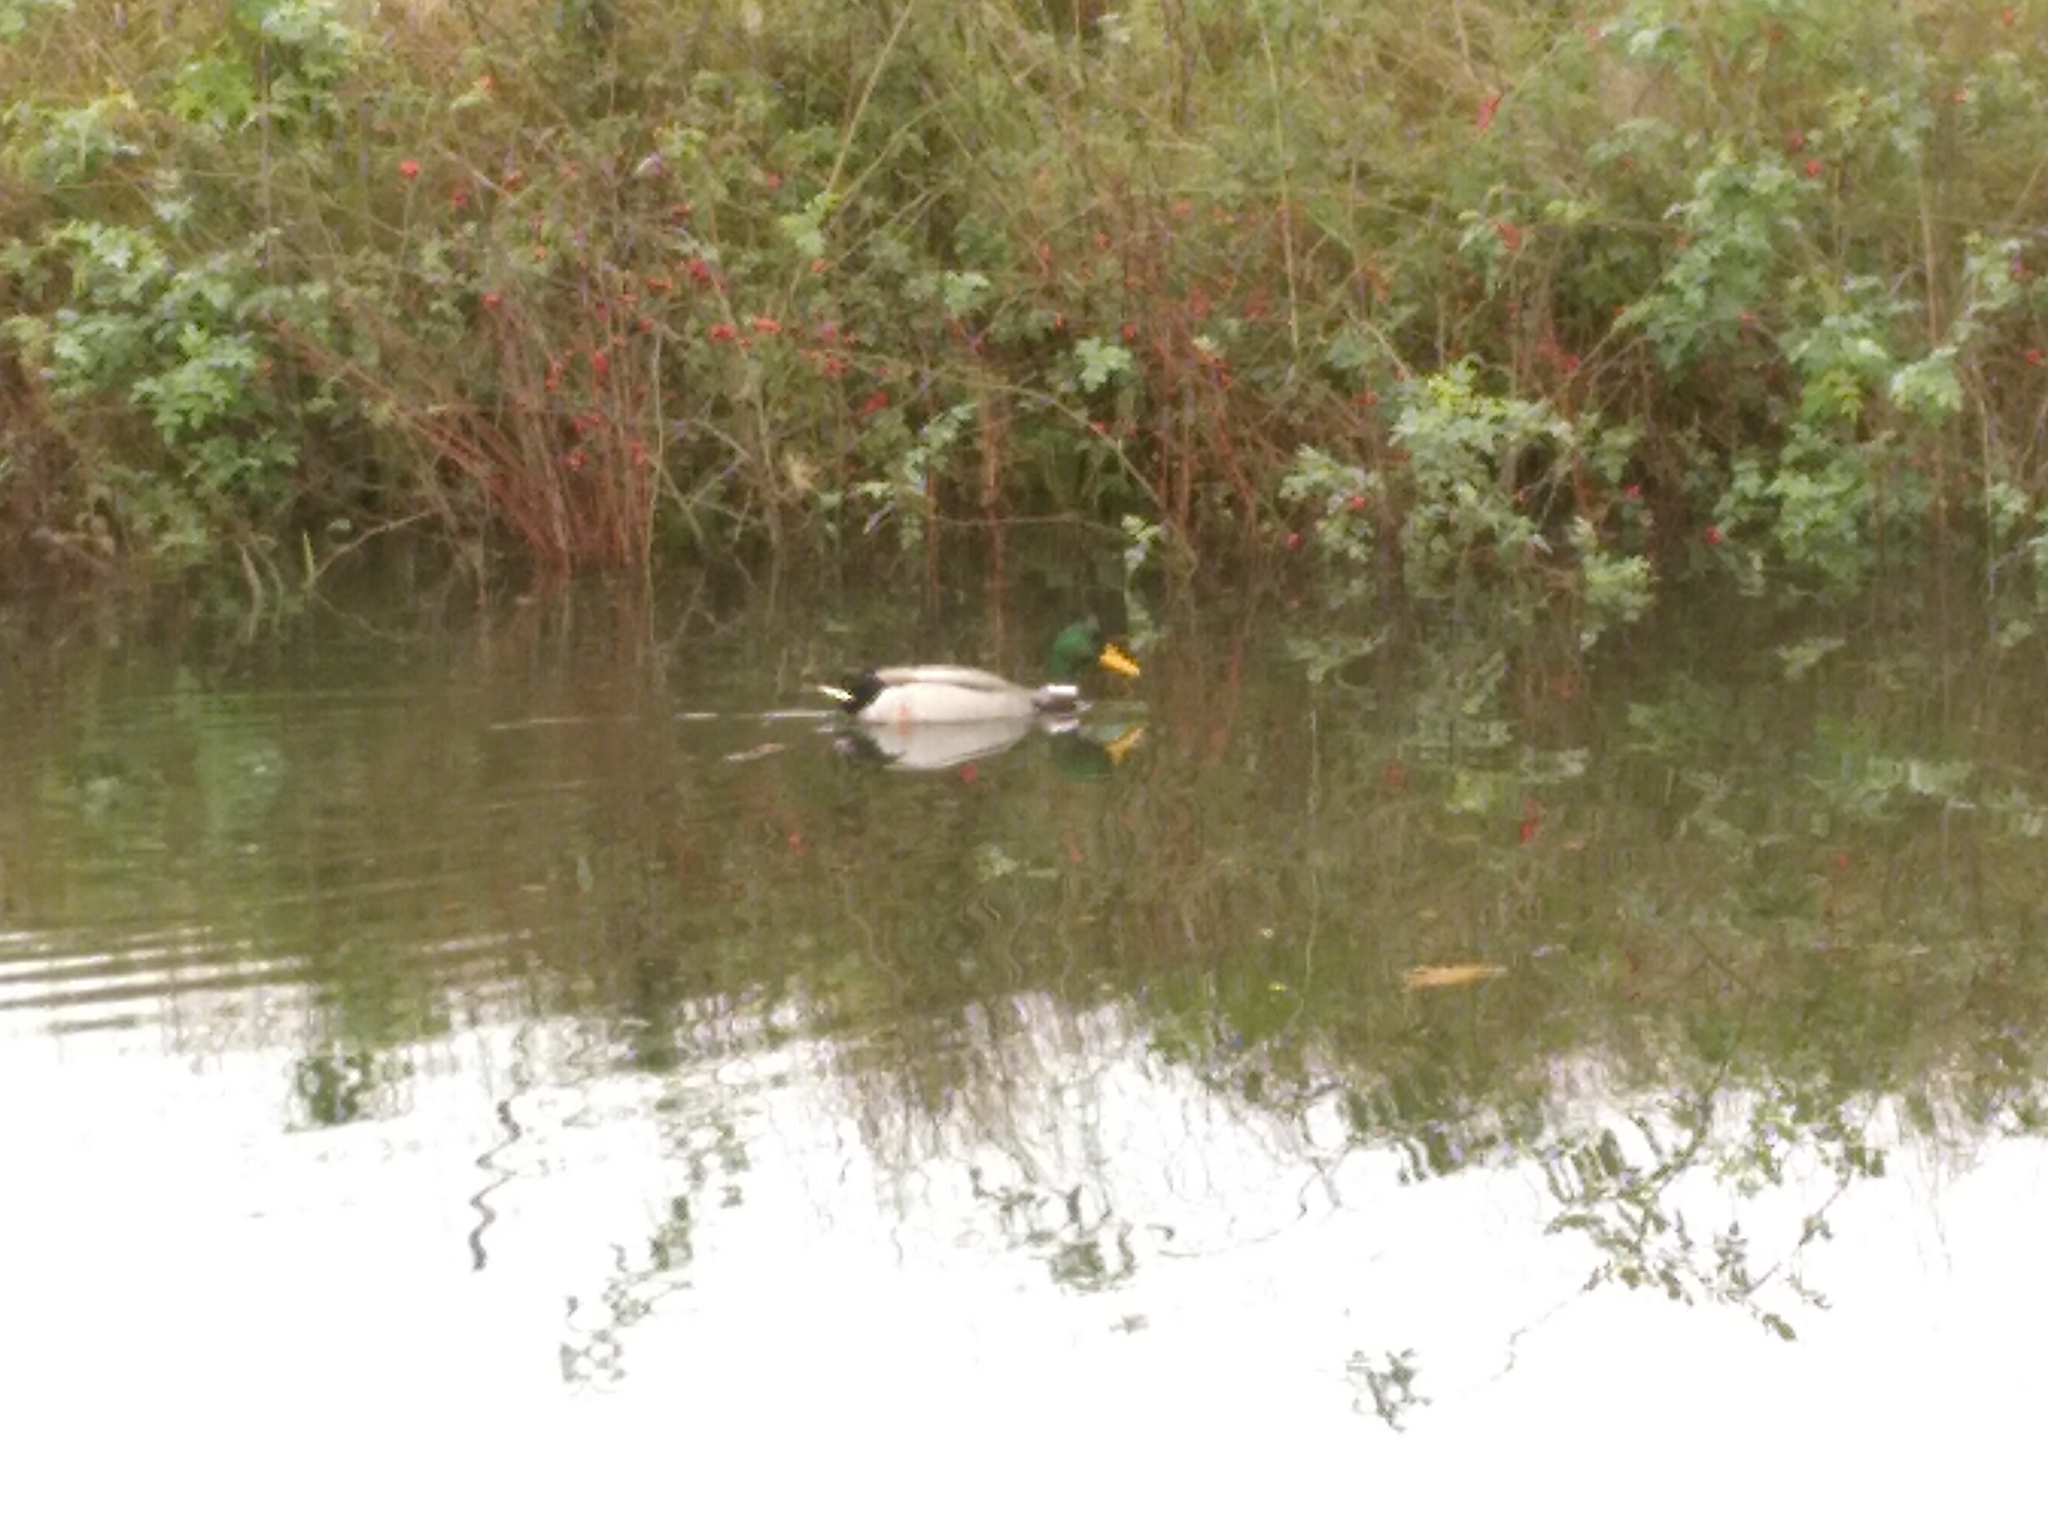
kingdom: Animalia
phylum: Chordata
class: Aves
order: Anseriformes
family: Anatidae
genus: Anas
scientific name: Anas platyrhynchos
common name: Mallard
